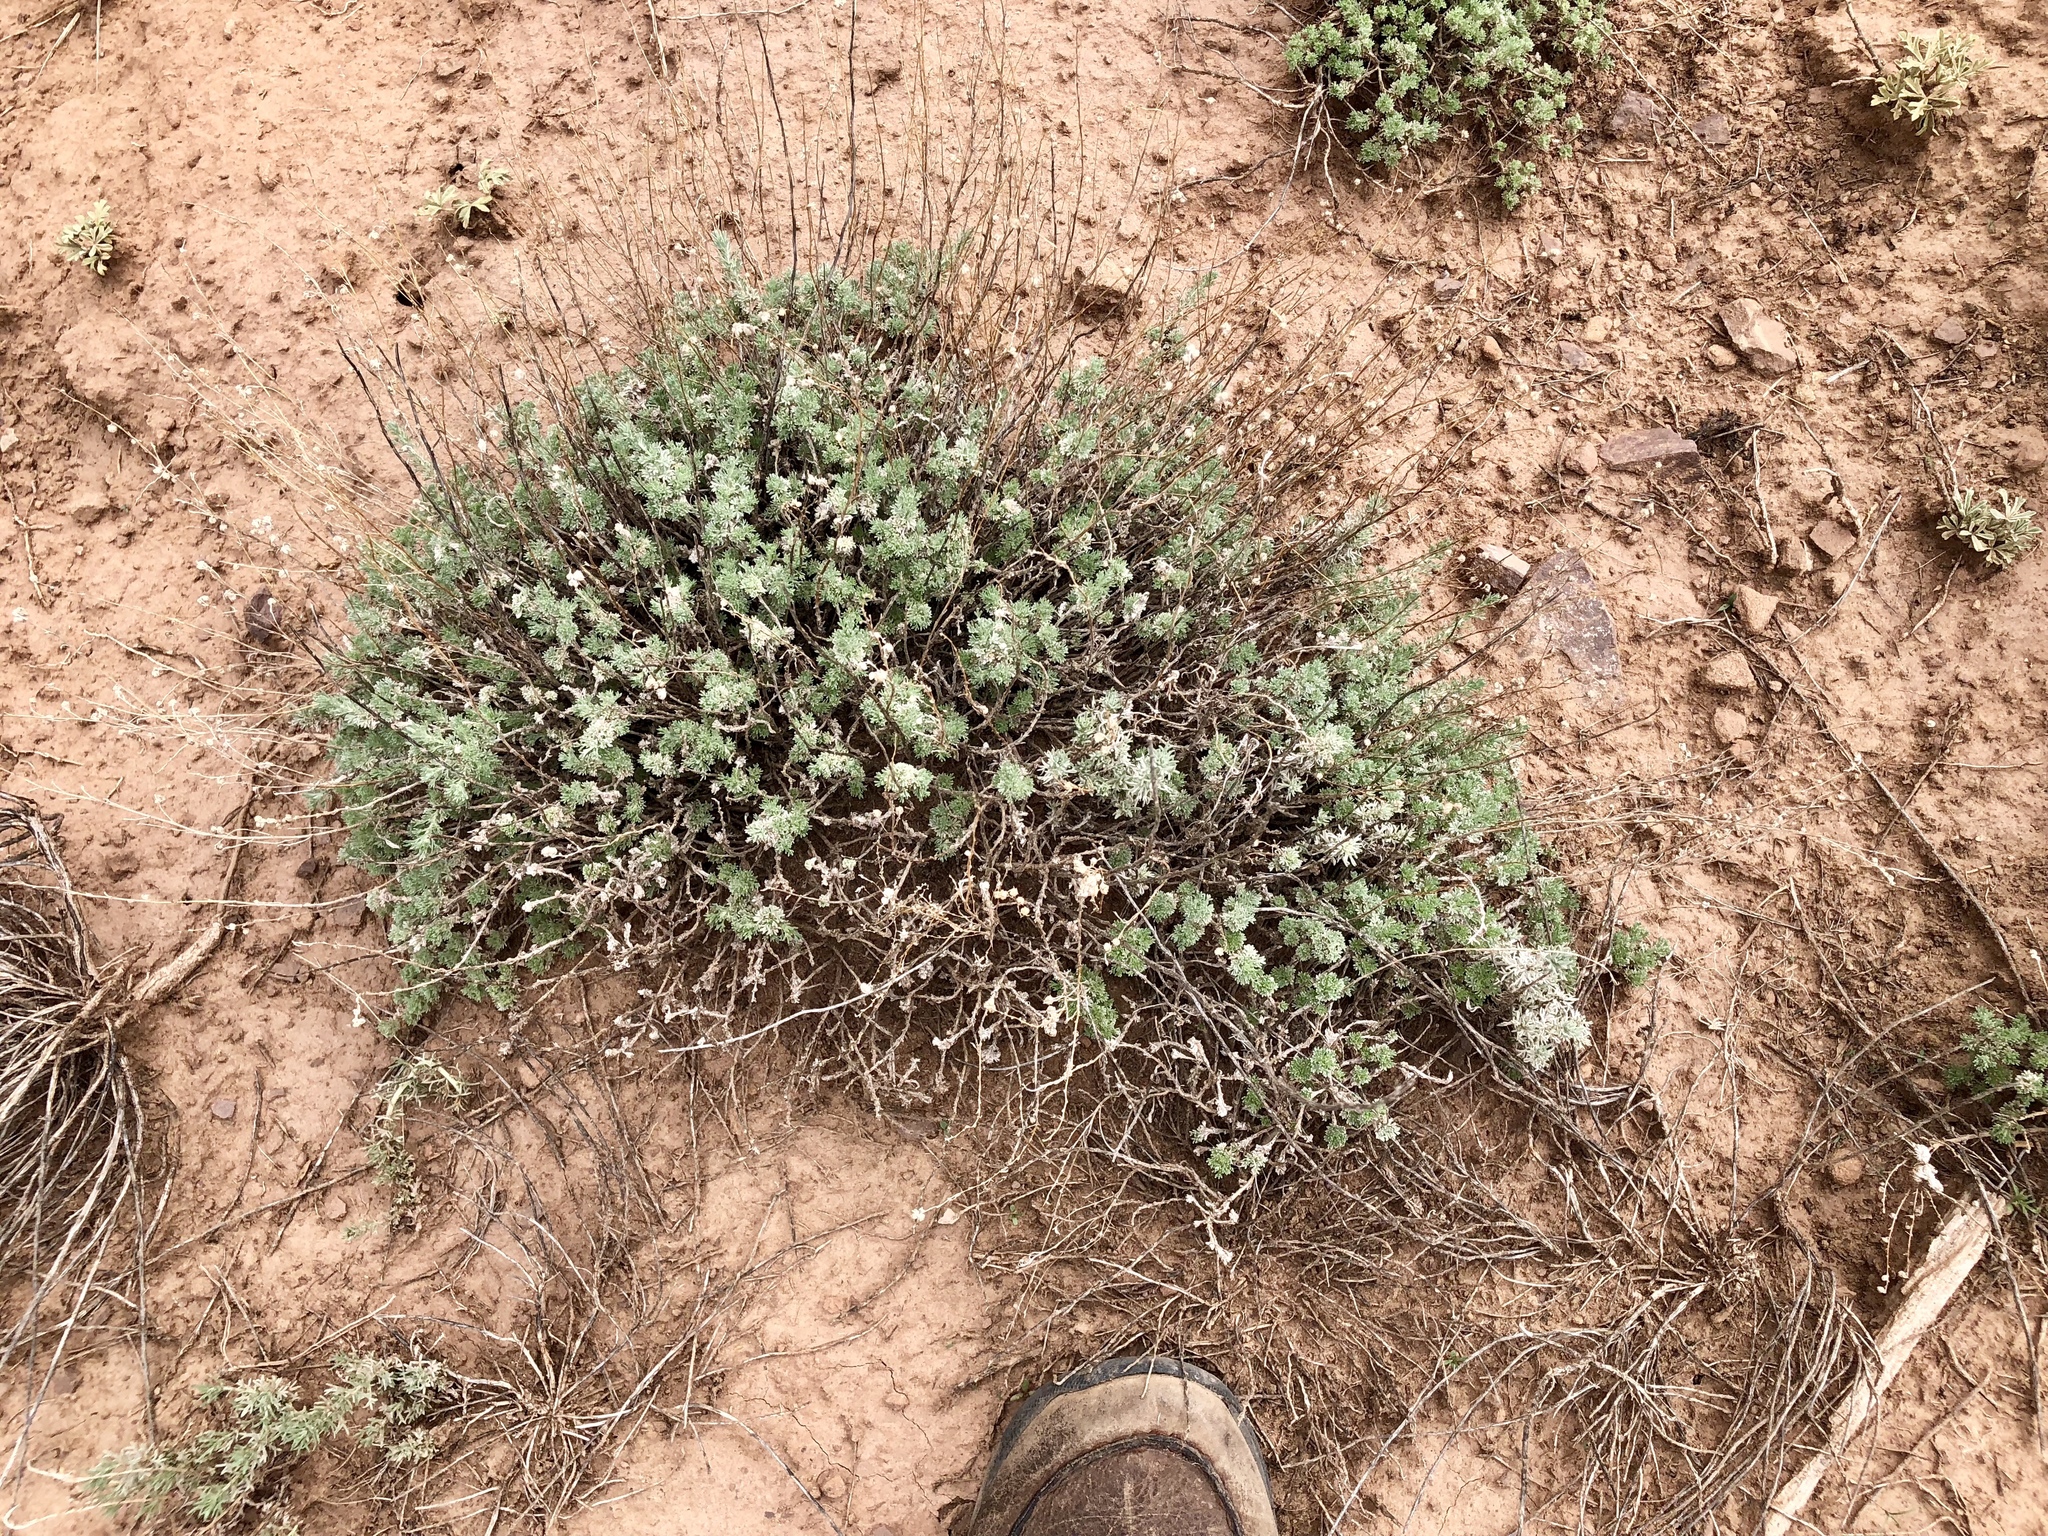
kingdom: Plantae
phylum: Tracheophyta
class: Magnoliopsida
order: Asterales
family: Asteraceae
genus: Artemisia
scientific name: Artemisia frigida
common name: Prairie sagewort
